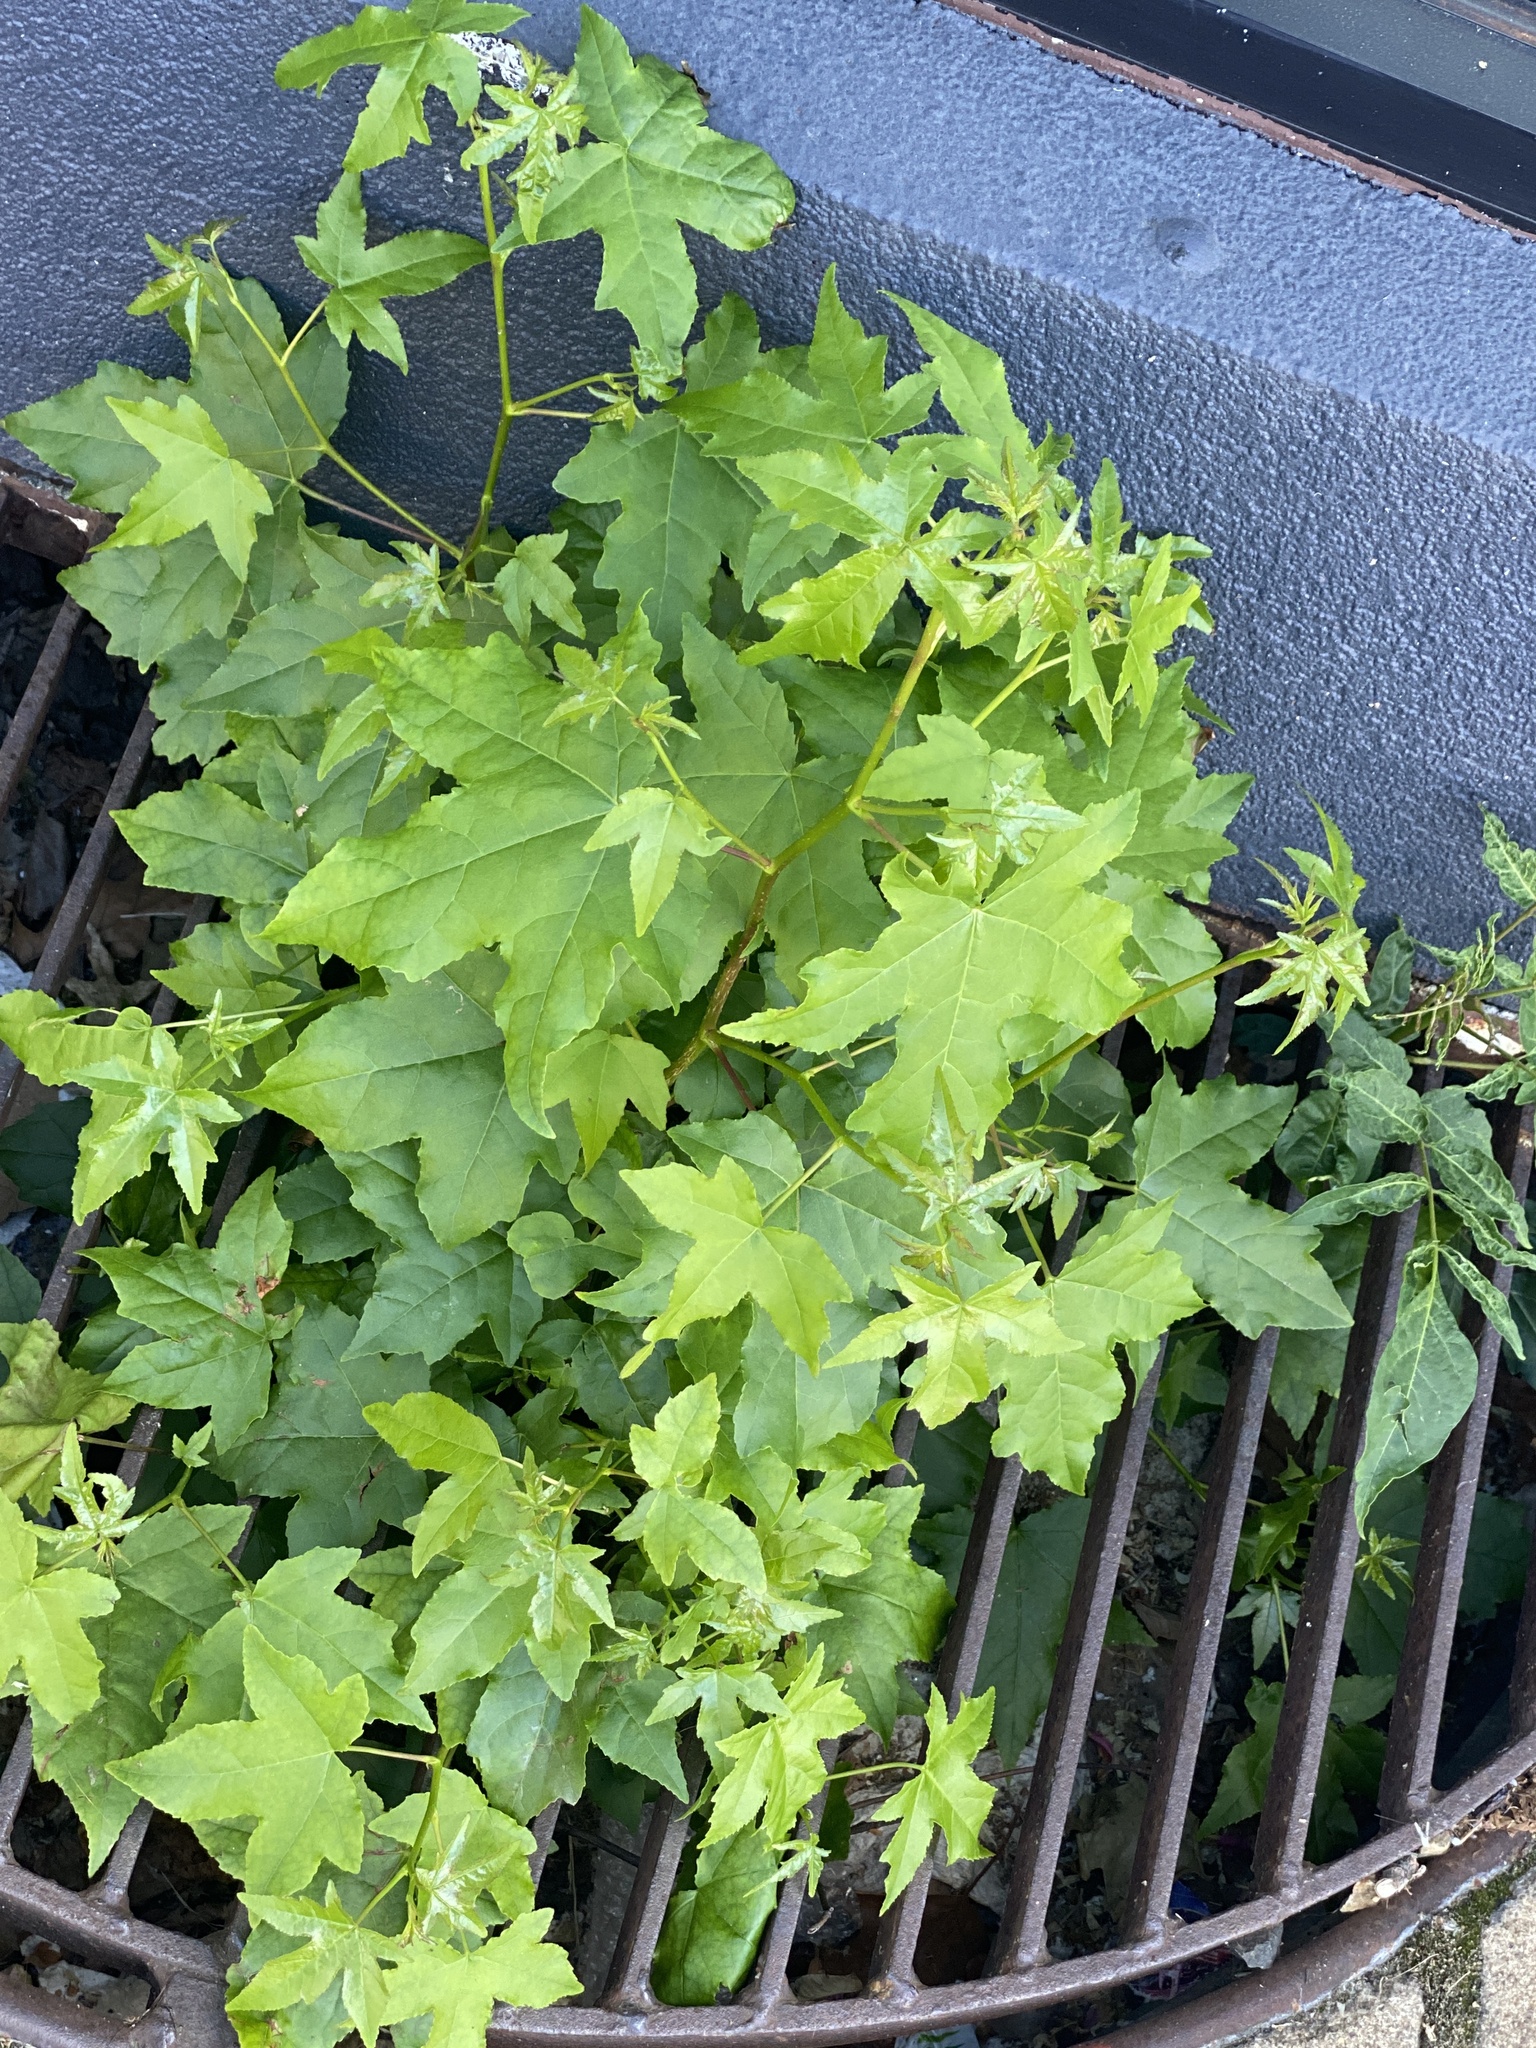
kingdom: Plantae
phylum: Tracheophyta
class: Magnoliopsida
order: Saxifragales
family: Altingiaceae
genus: Liquidambar
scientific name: Liquidambar styraciflua
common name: Sweet gum
